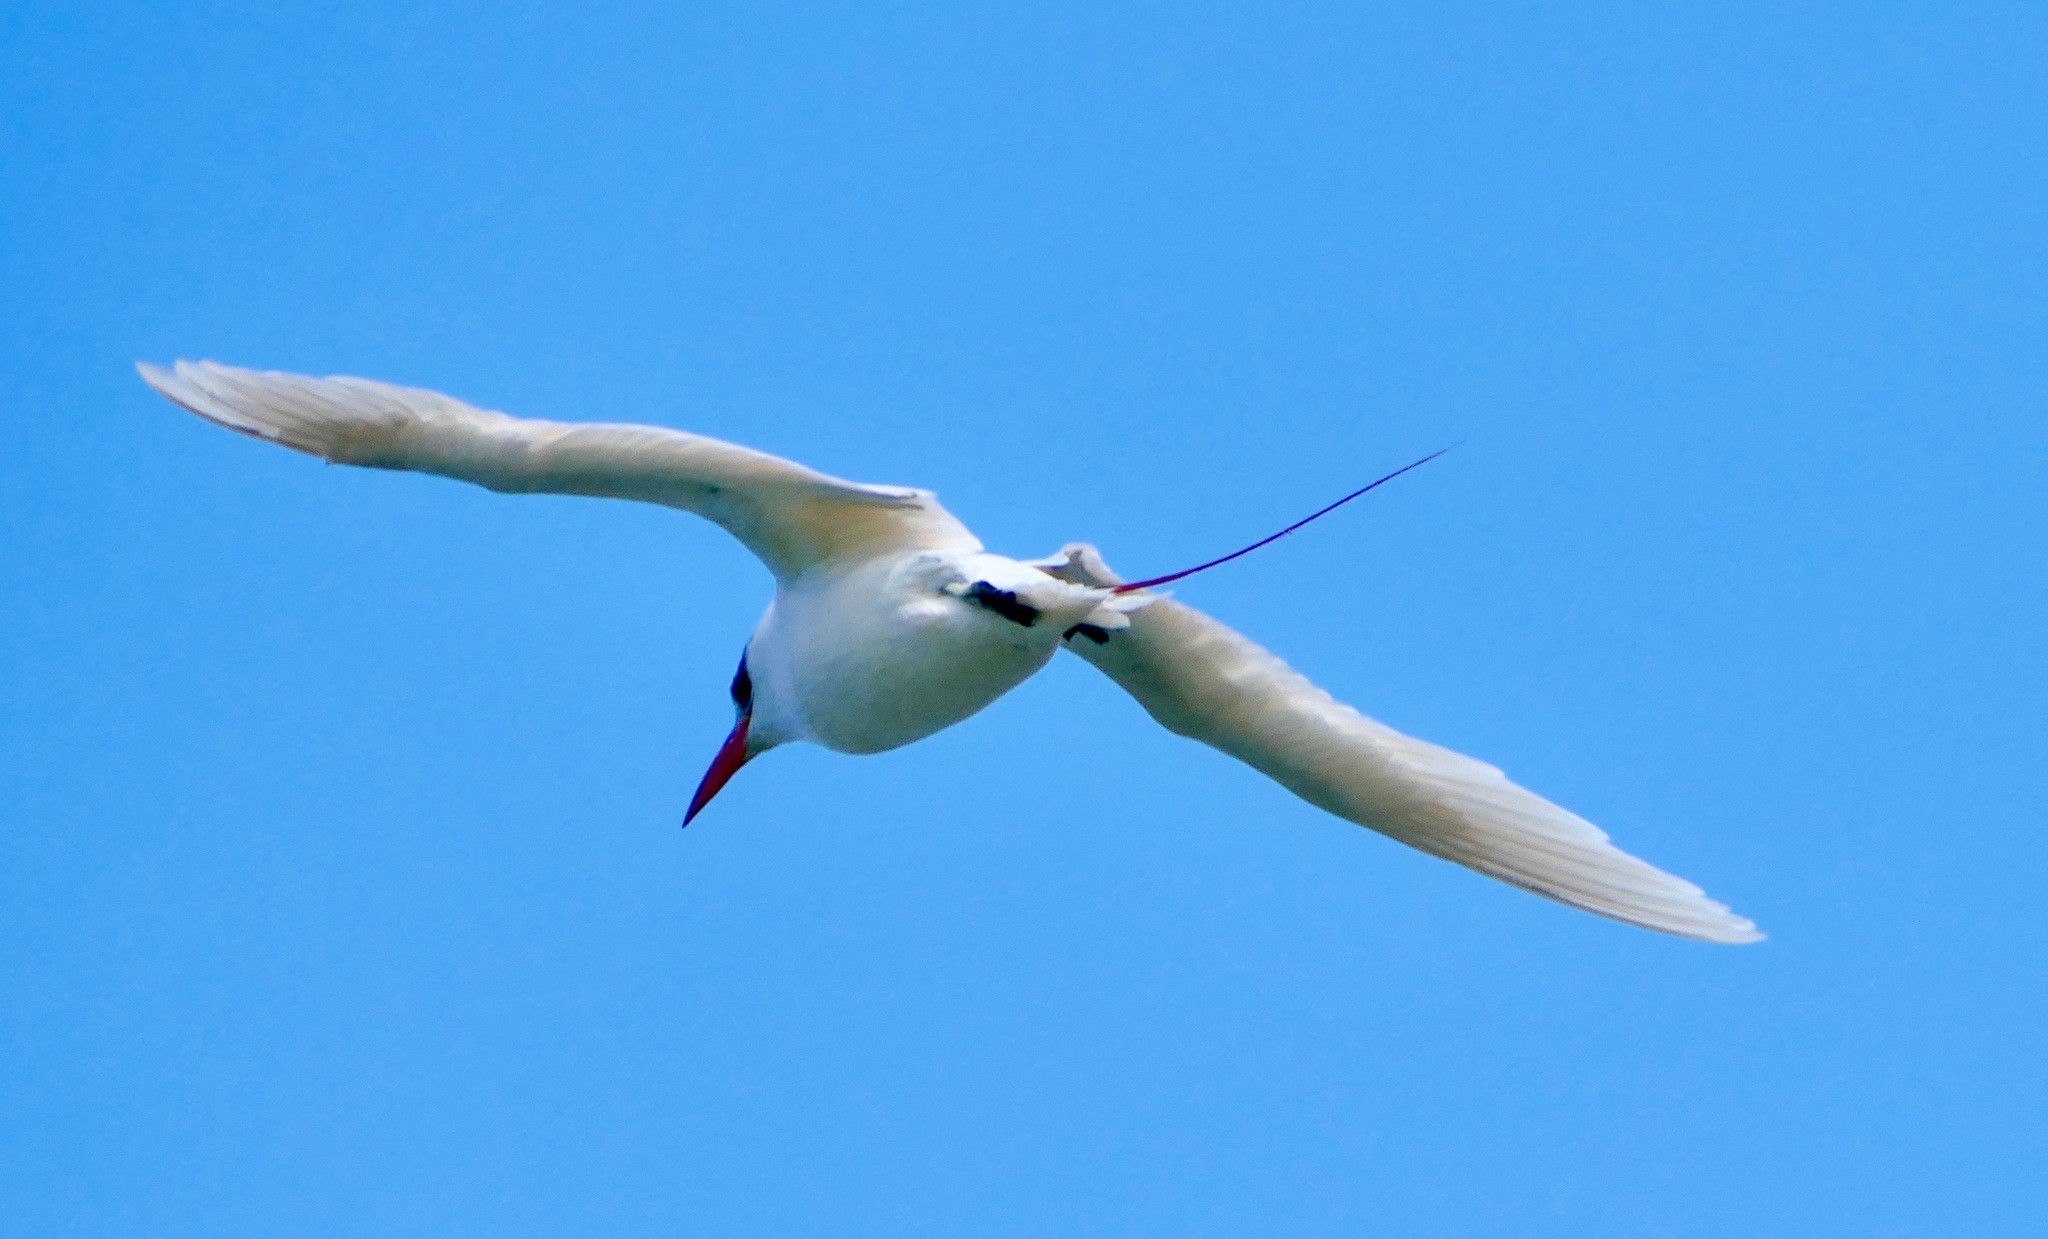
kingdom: Animalia
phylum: Chordata
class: Aves
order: Phaethontiformes
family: Phaethontidae
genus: Phaethon
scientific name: Phaethon rubricauda
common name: Red-tailed tropicbird
